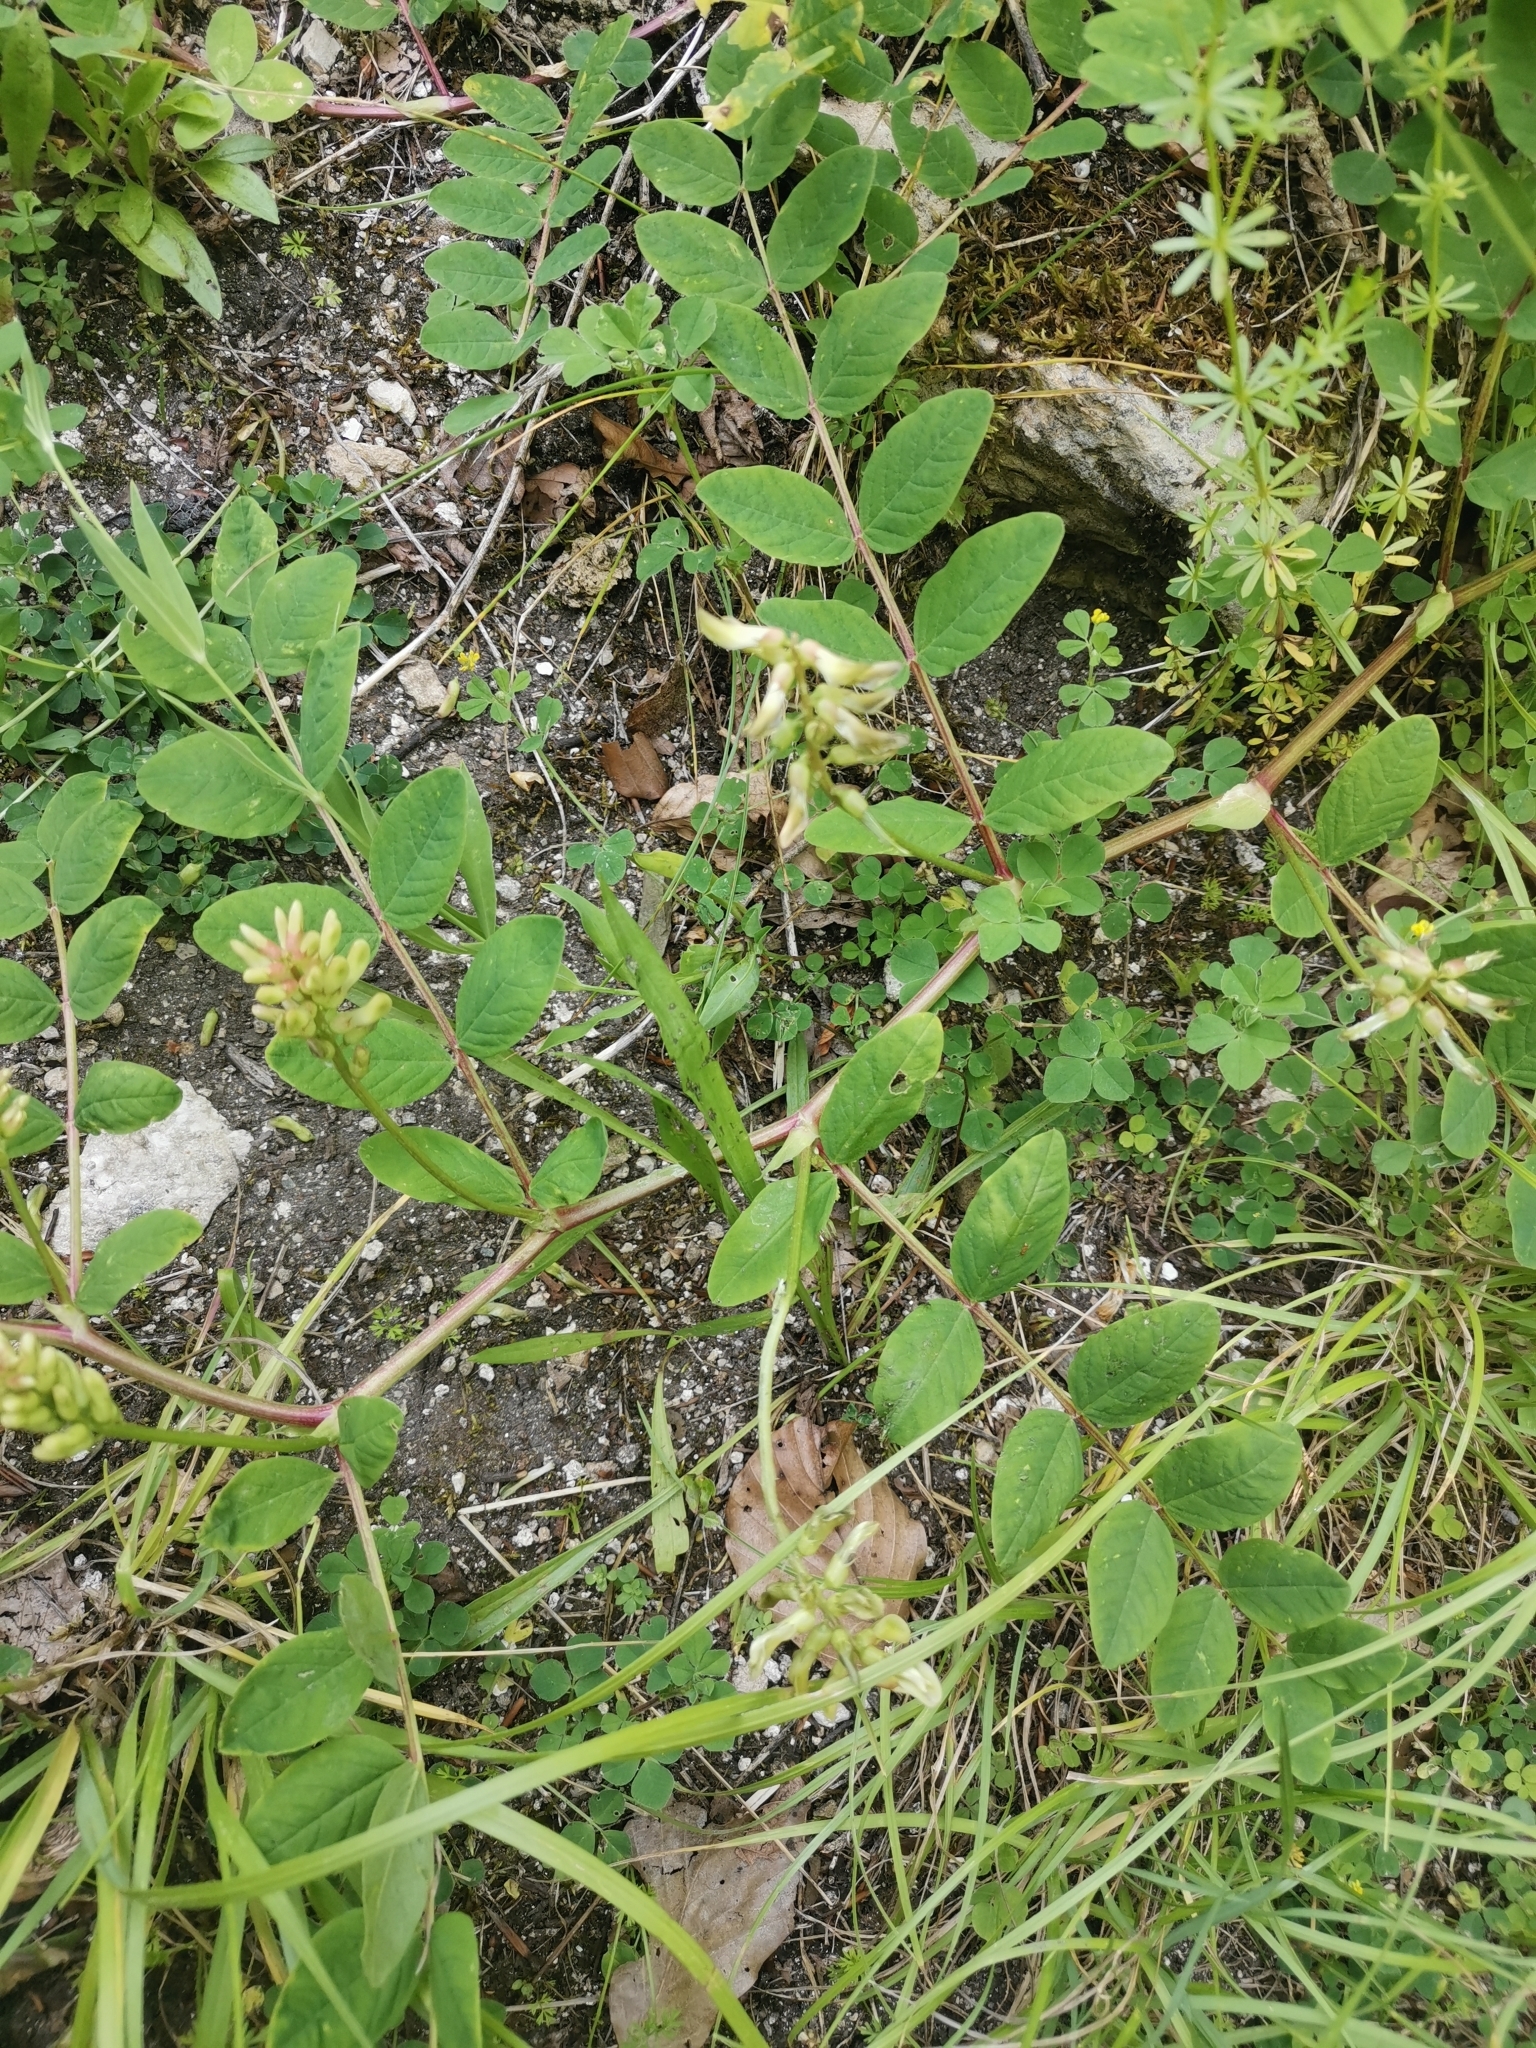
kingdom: Plantae
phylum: Tracheophyta
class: Magnoliopsida
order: Fabales
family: Fabaceae
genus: Astragalus
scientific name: Astragalus glycyphyllos
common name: Wild liquorice
